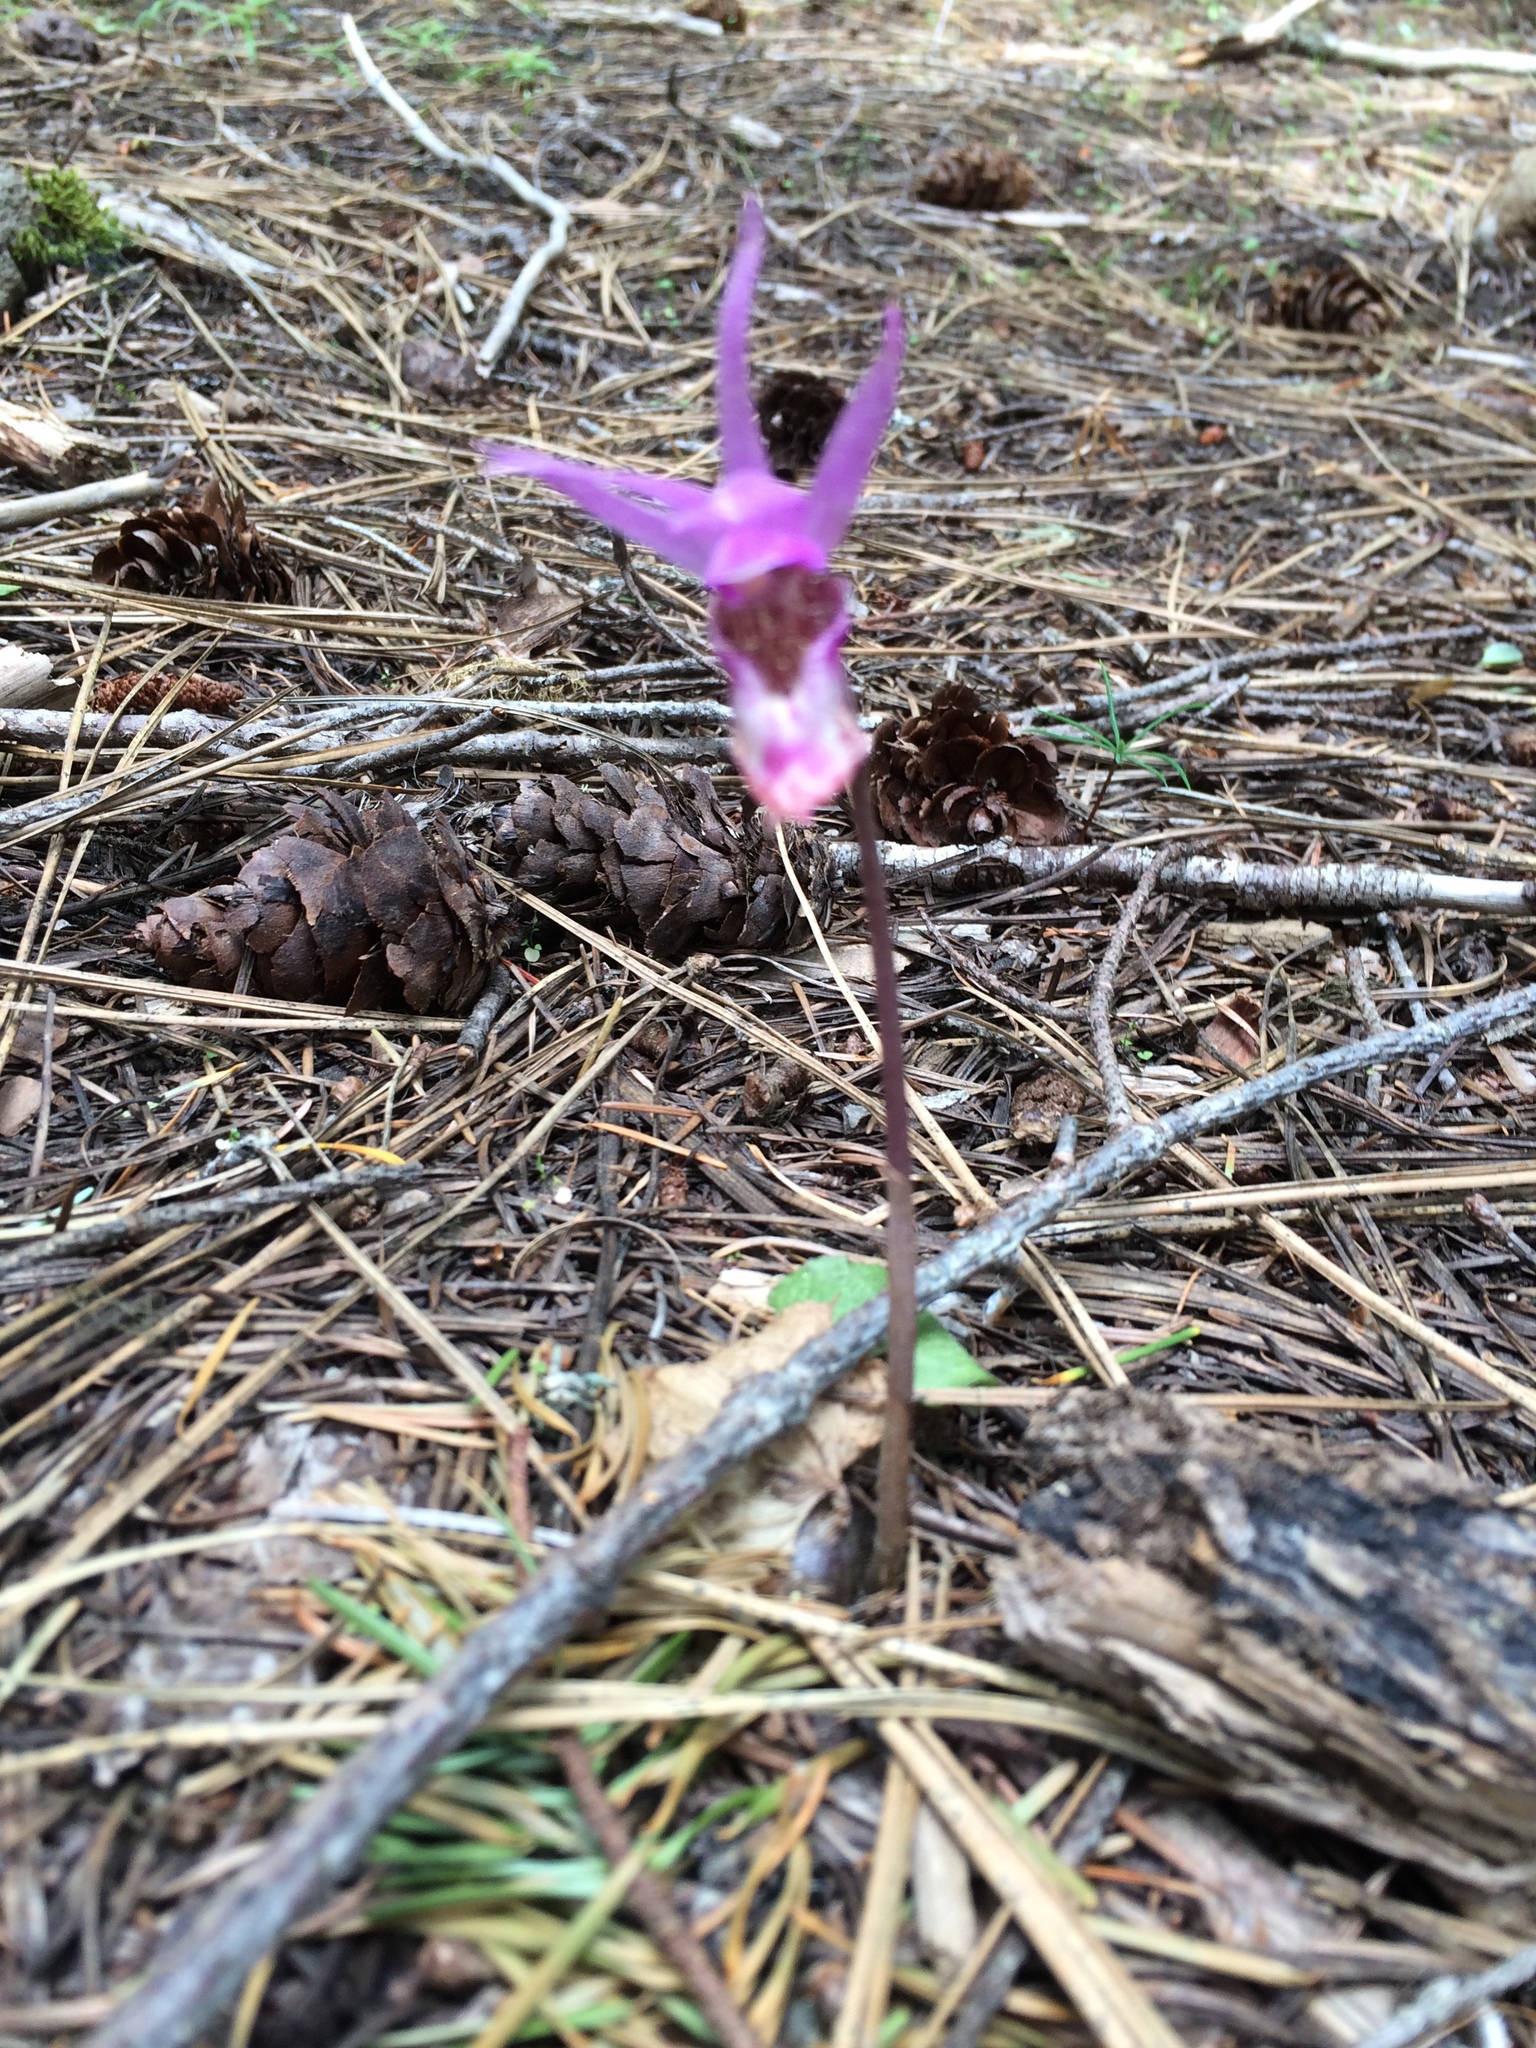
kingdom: Plantae
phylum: Tracheophyta
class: Liliopsida
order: Asparagales
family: Orchidaceae
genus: Calypso
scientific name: Calypso bulbosa
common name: Calypso
